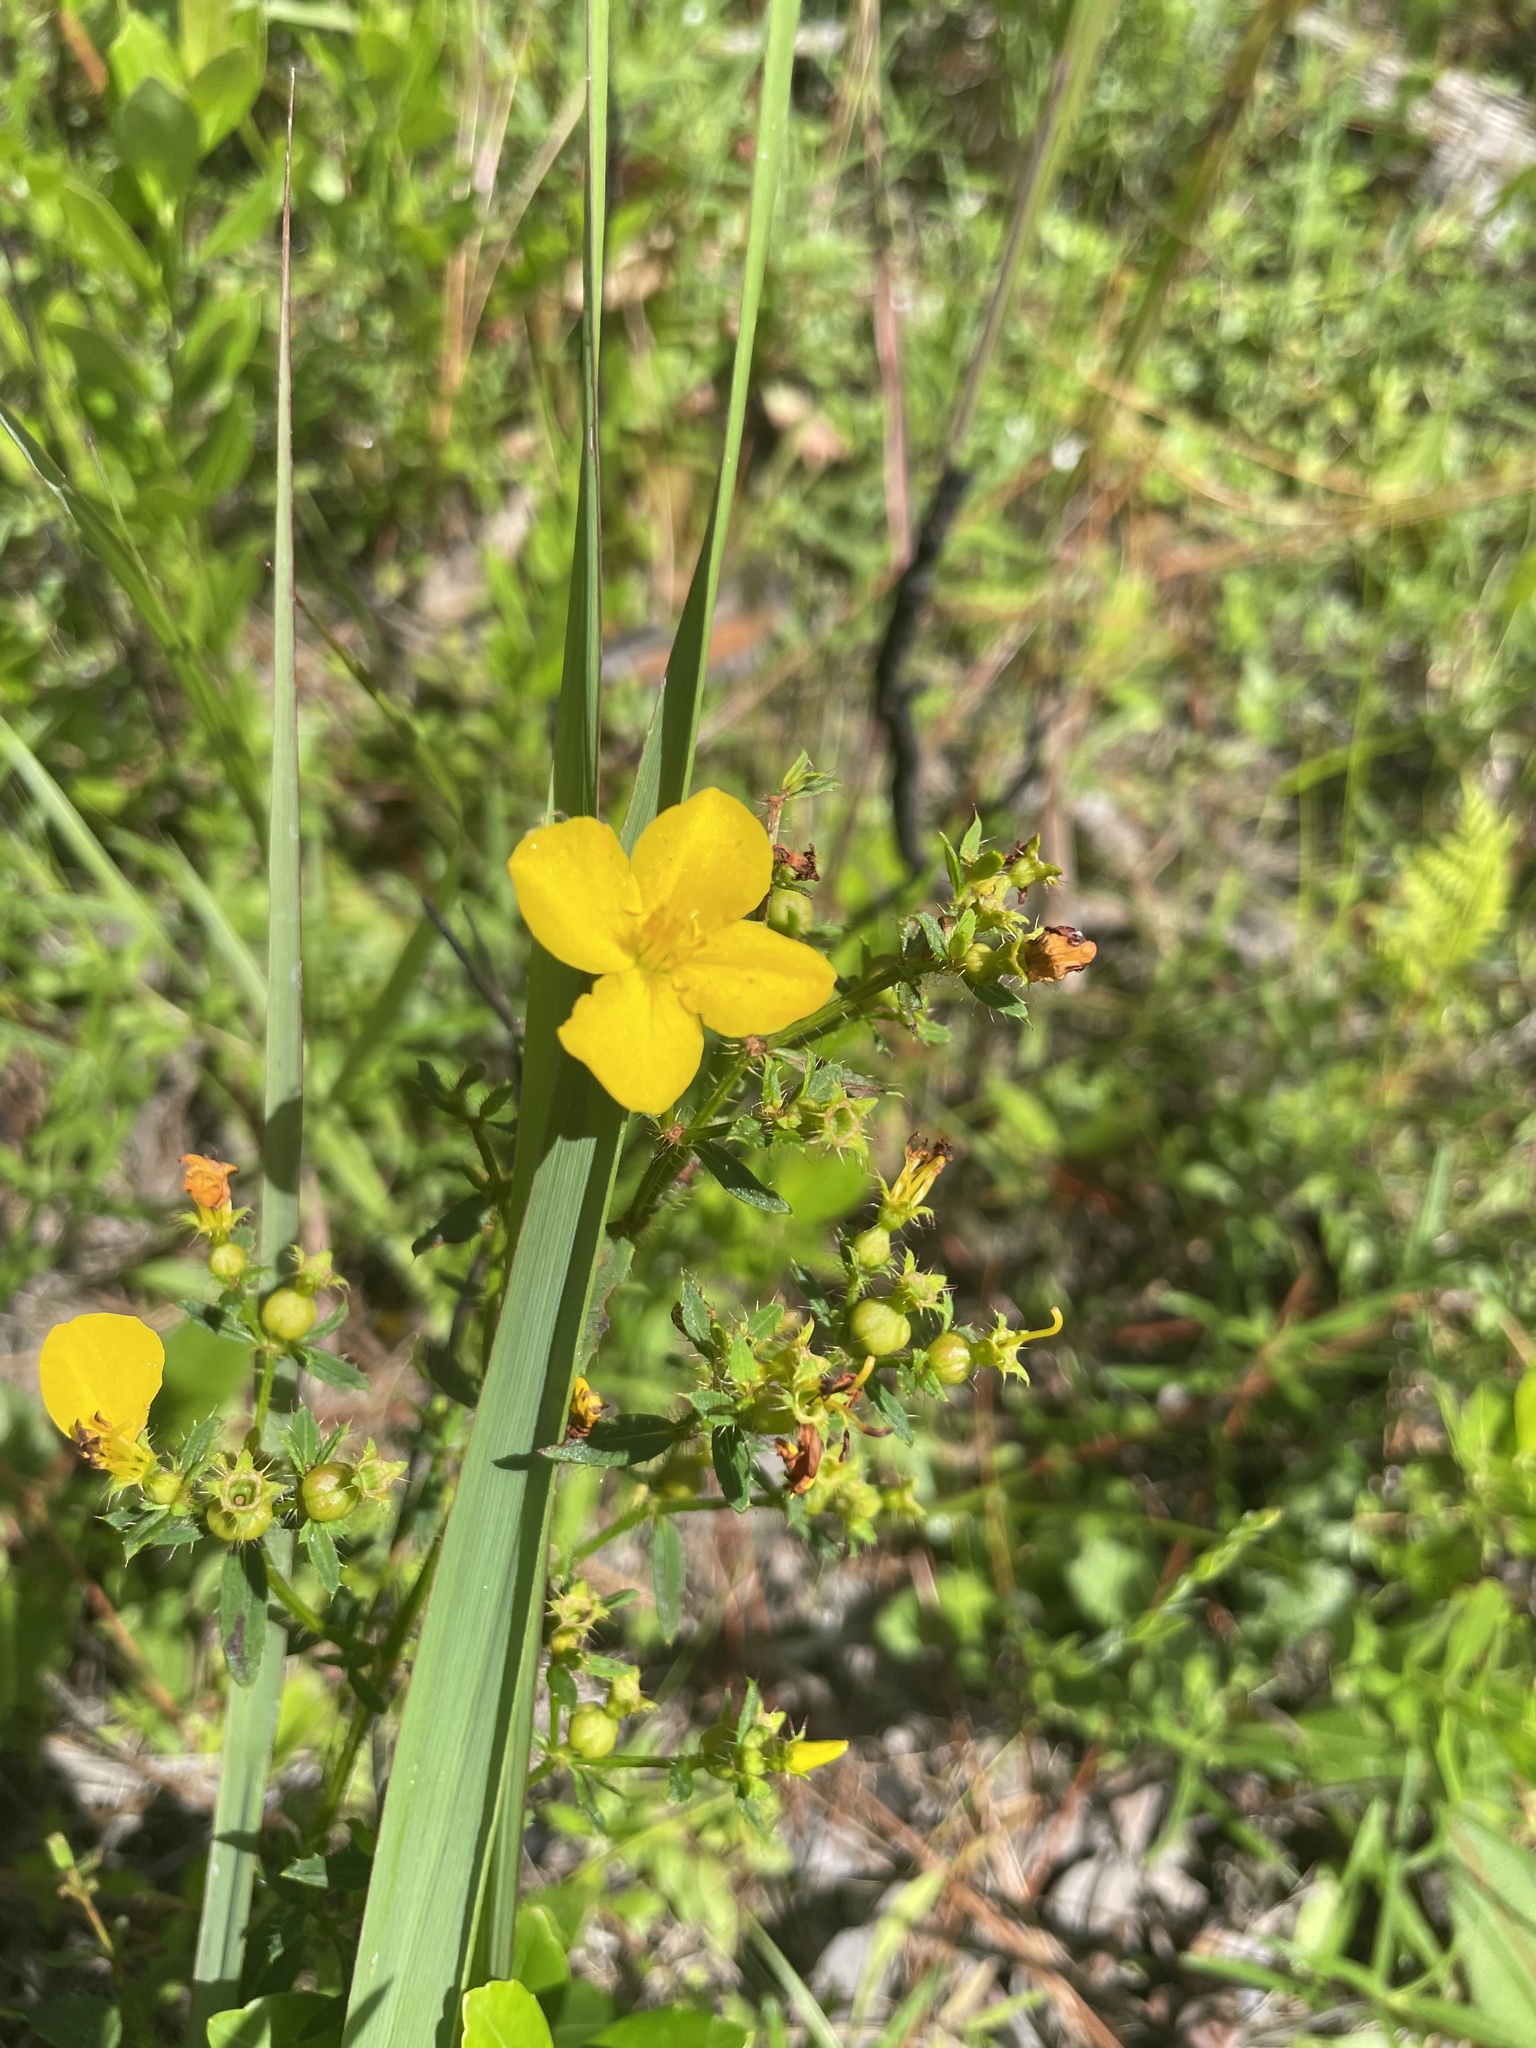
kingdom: Plantae
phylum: Tracheophyta
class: Magnoliopsida
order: Myrtales
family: Melastomataceae
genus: Rhexia
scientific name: Rhexia lutea
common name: Golden meadow-beauty
